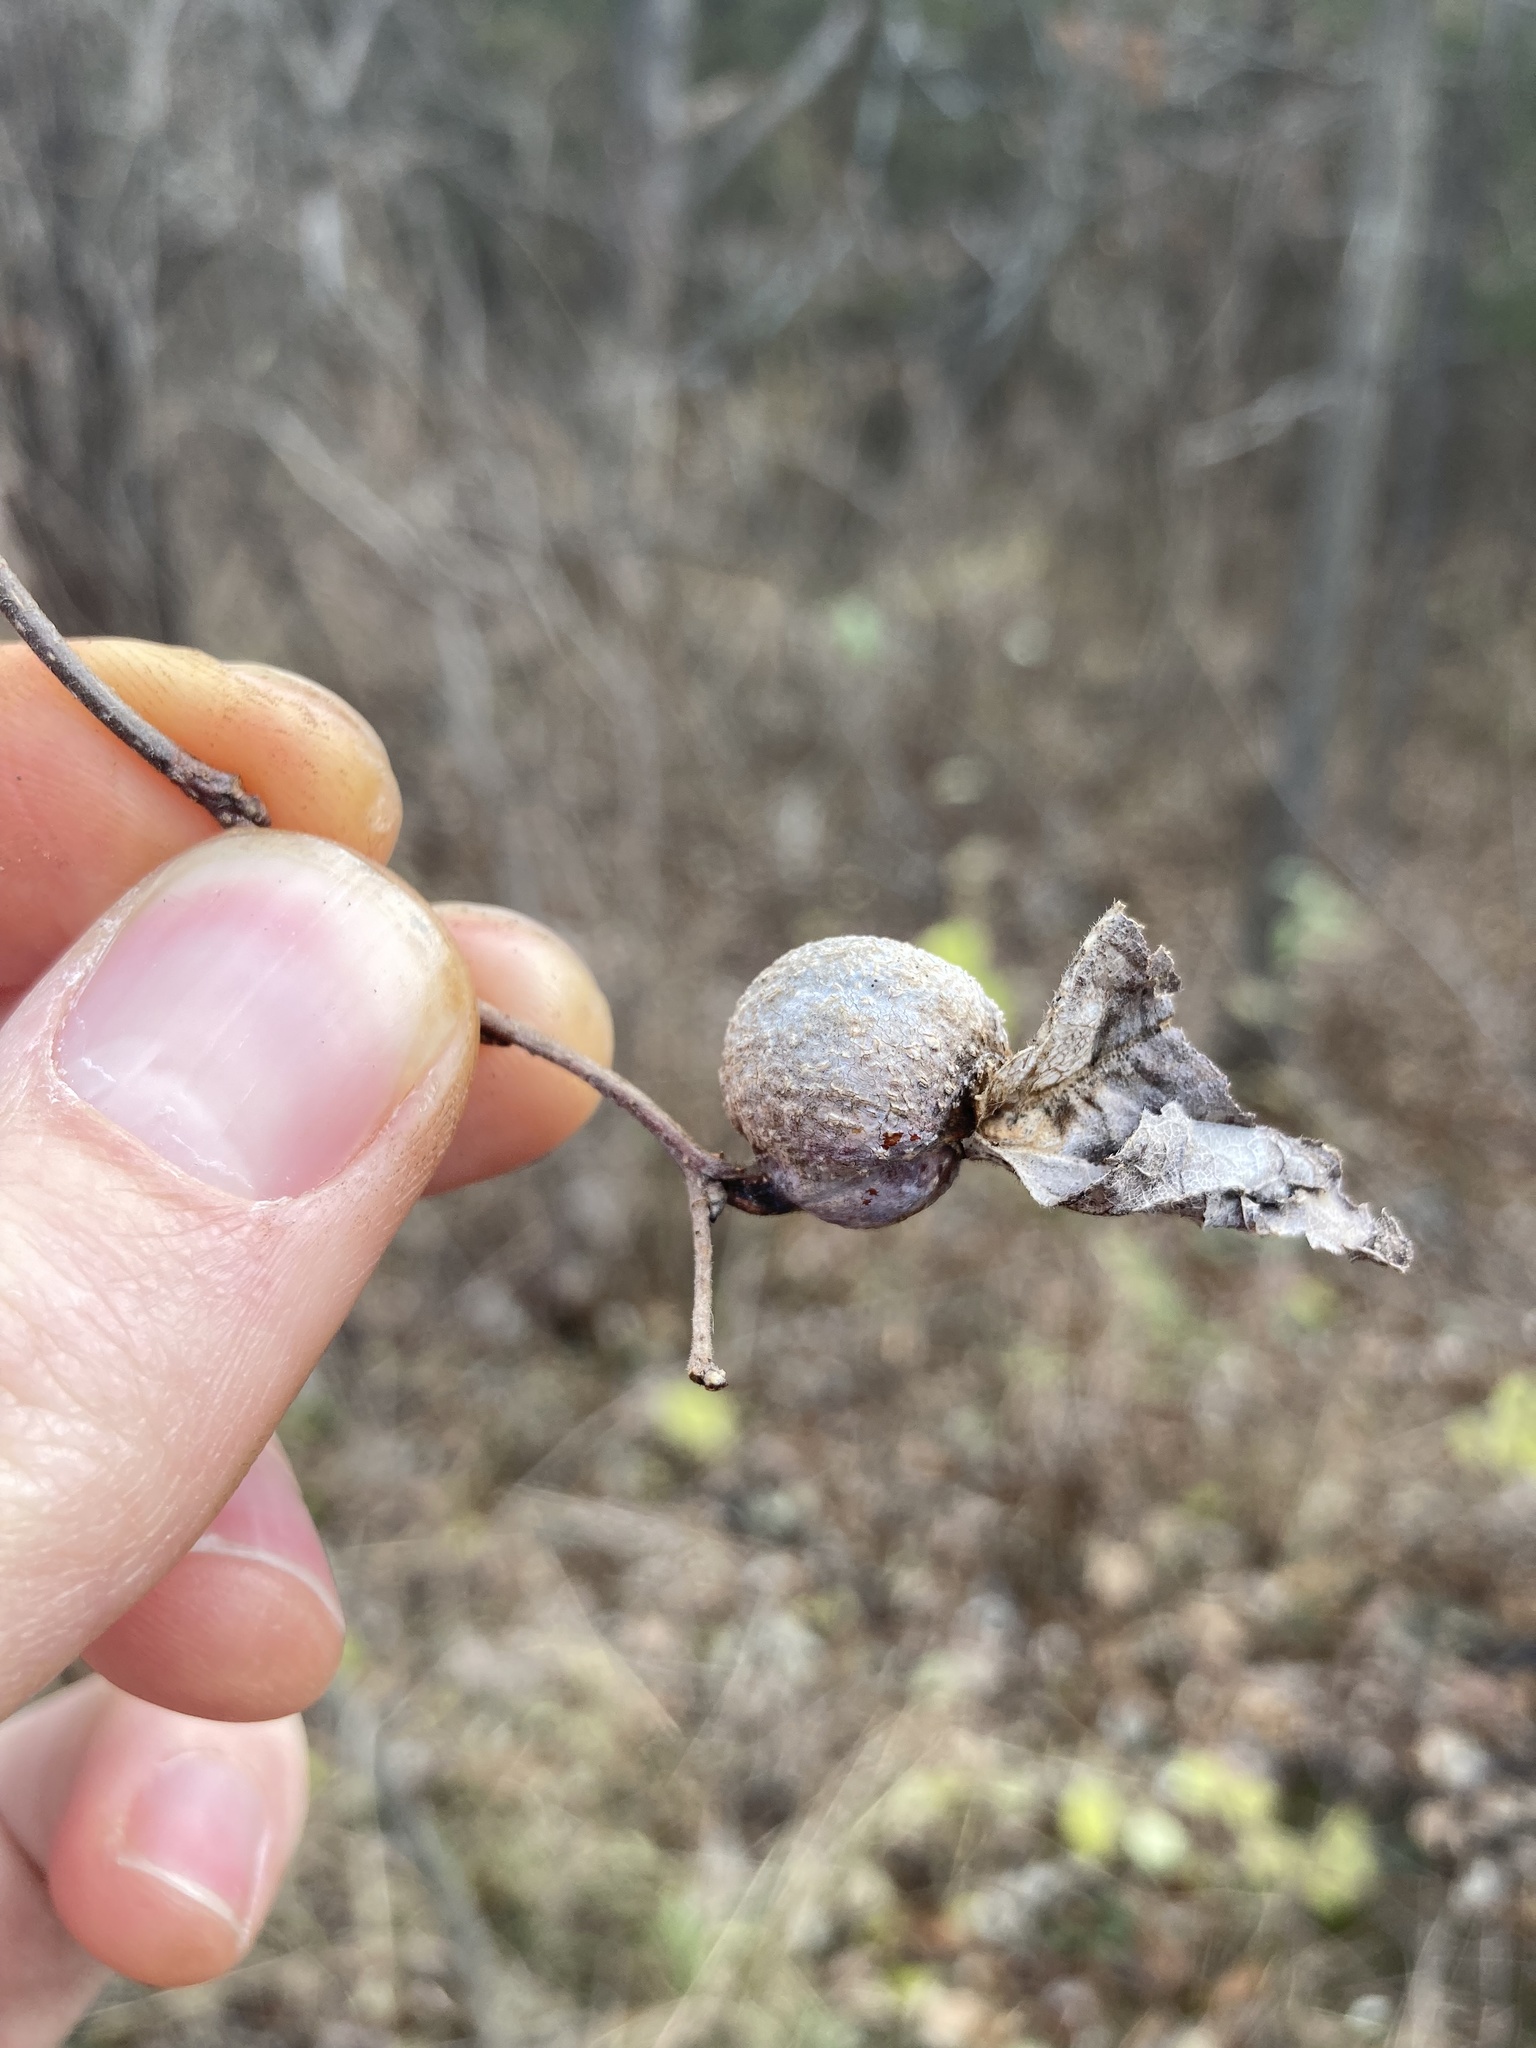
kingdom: Animalia
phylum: Arthropoda
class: Insecta
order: Hemiptera
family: Aphalaridae
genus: Pachypsylla
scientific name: Pachypsylla venusta
